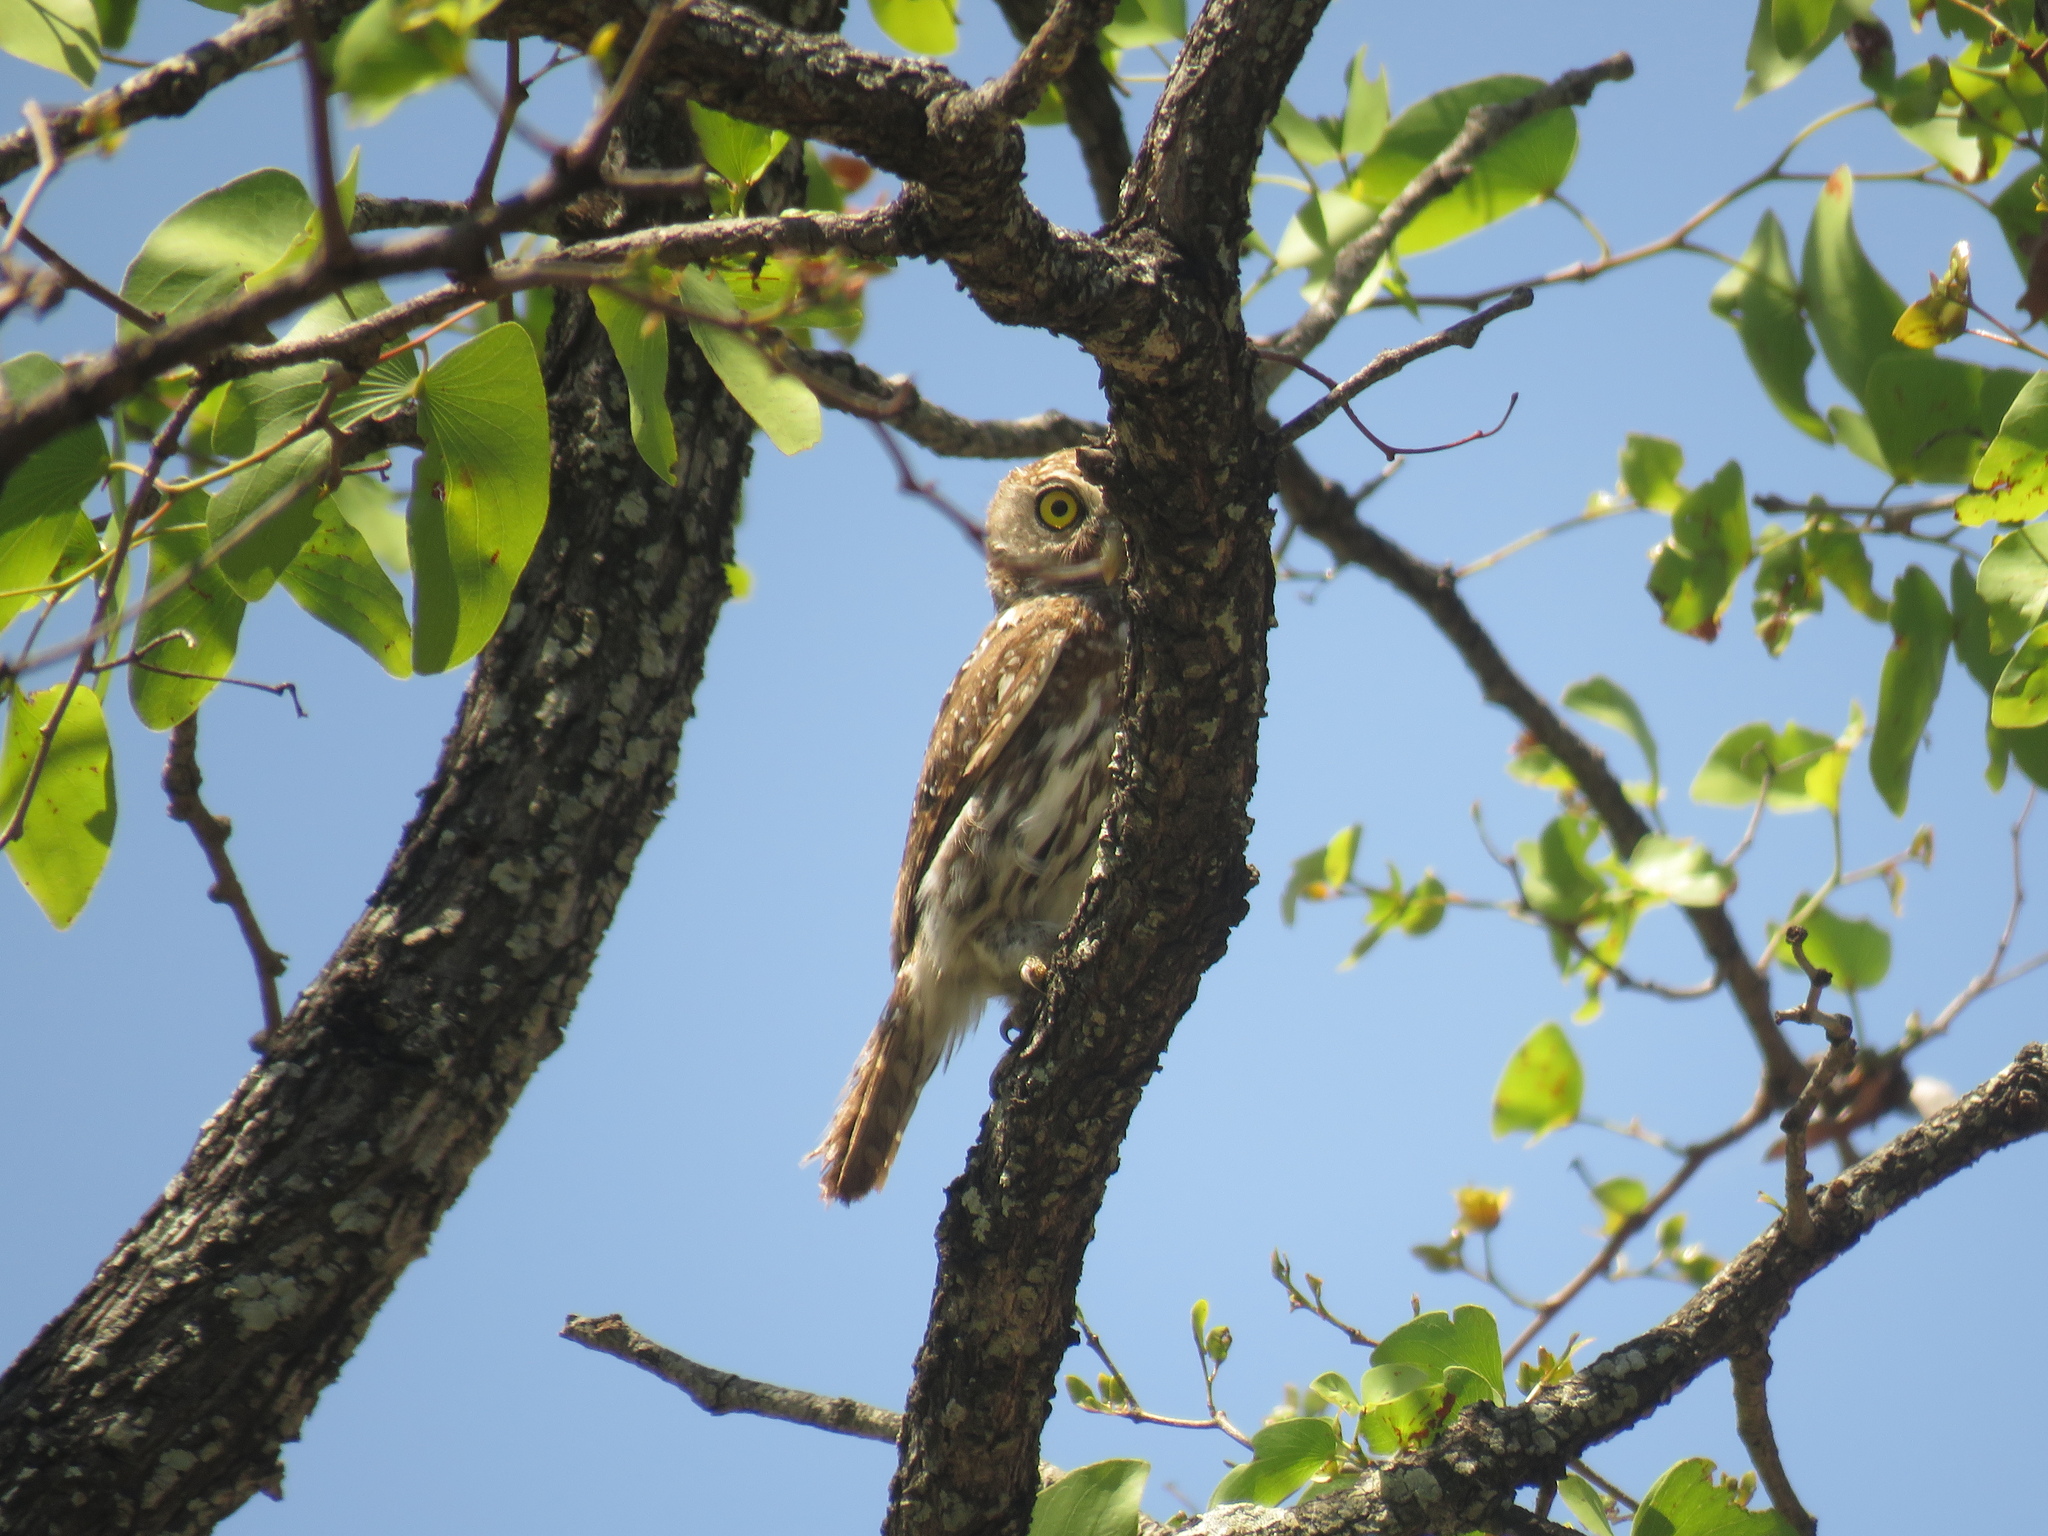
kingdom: Animalia
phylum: Chordata
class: Aves
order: Strigiformes
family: Strigidae
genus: Glaucidium
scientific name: Glaucidium perlatum
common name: Pearl-spotted owlet
